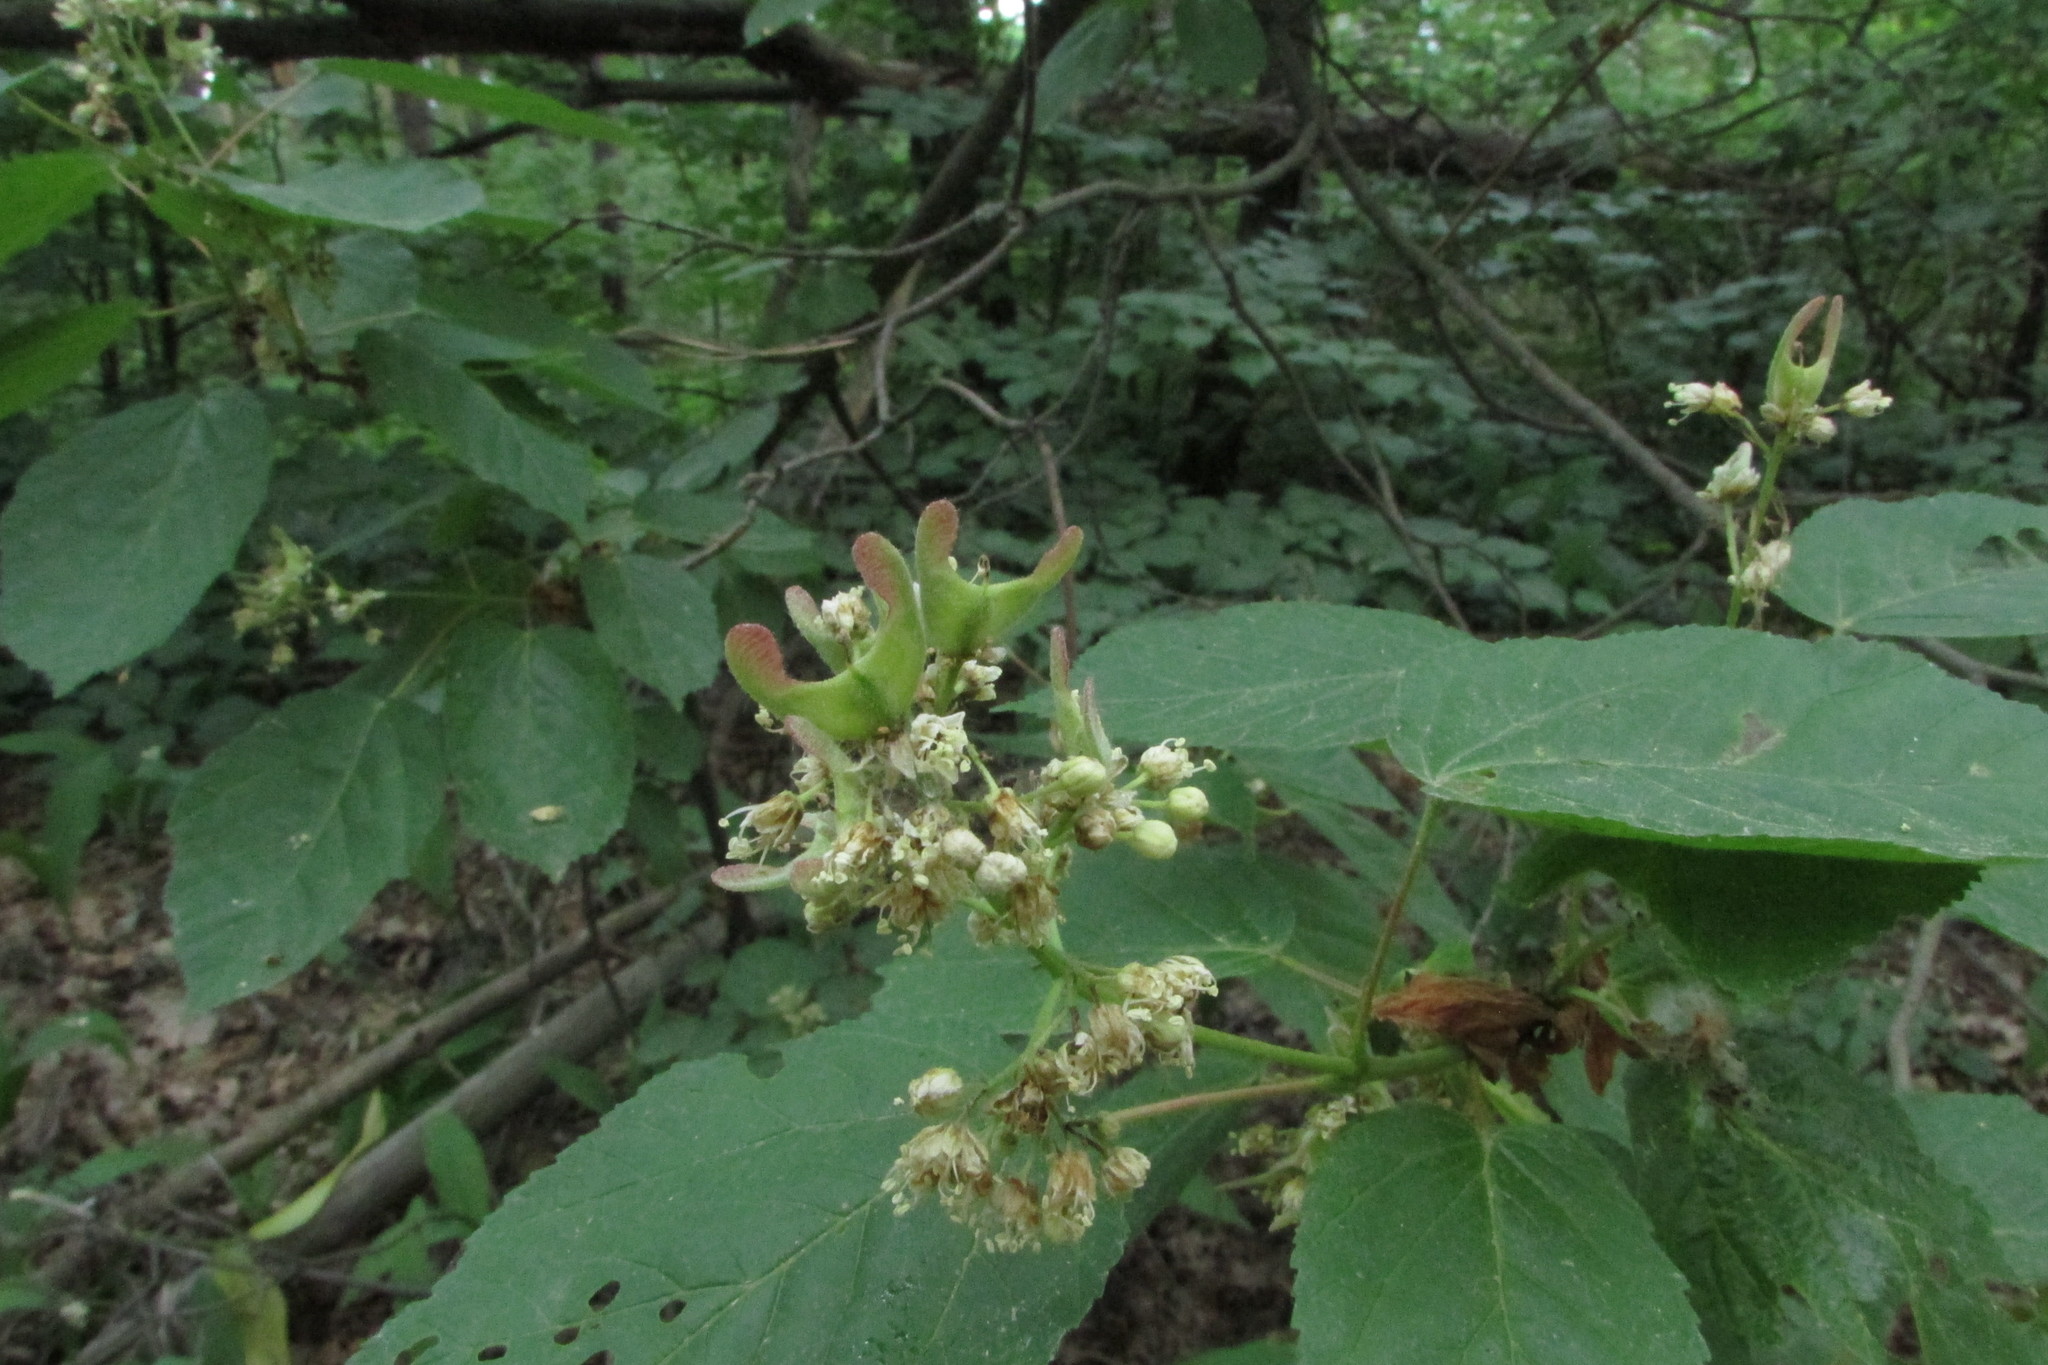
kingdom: Plantae
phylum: Tracheophyta
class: Magnoliopsida
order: Sapindales
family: Sapindaceae
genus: Acer
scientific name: Acer tataricum
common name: Tartar maple
